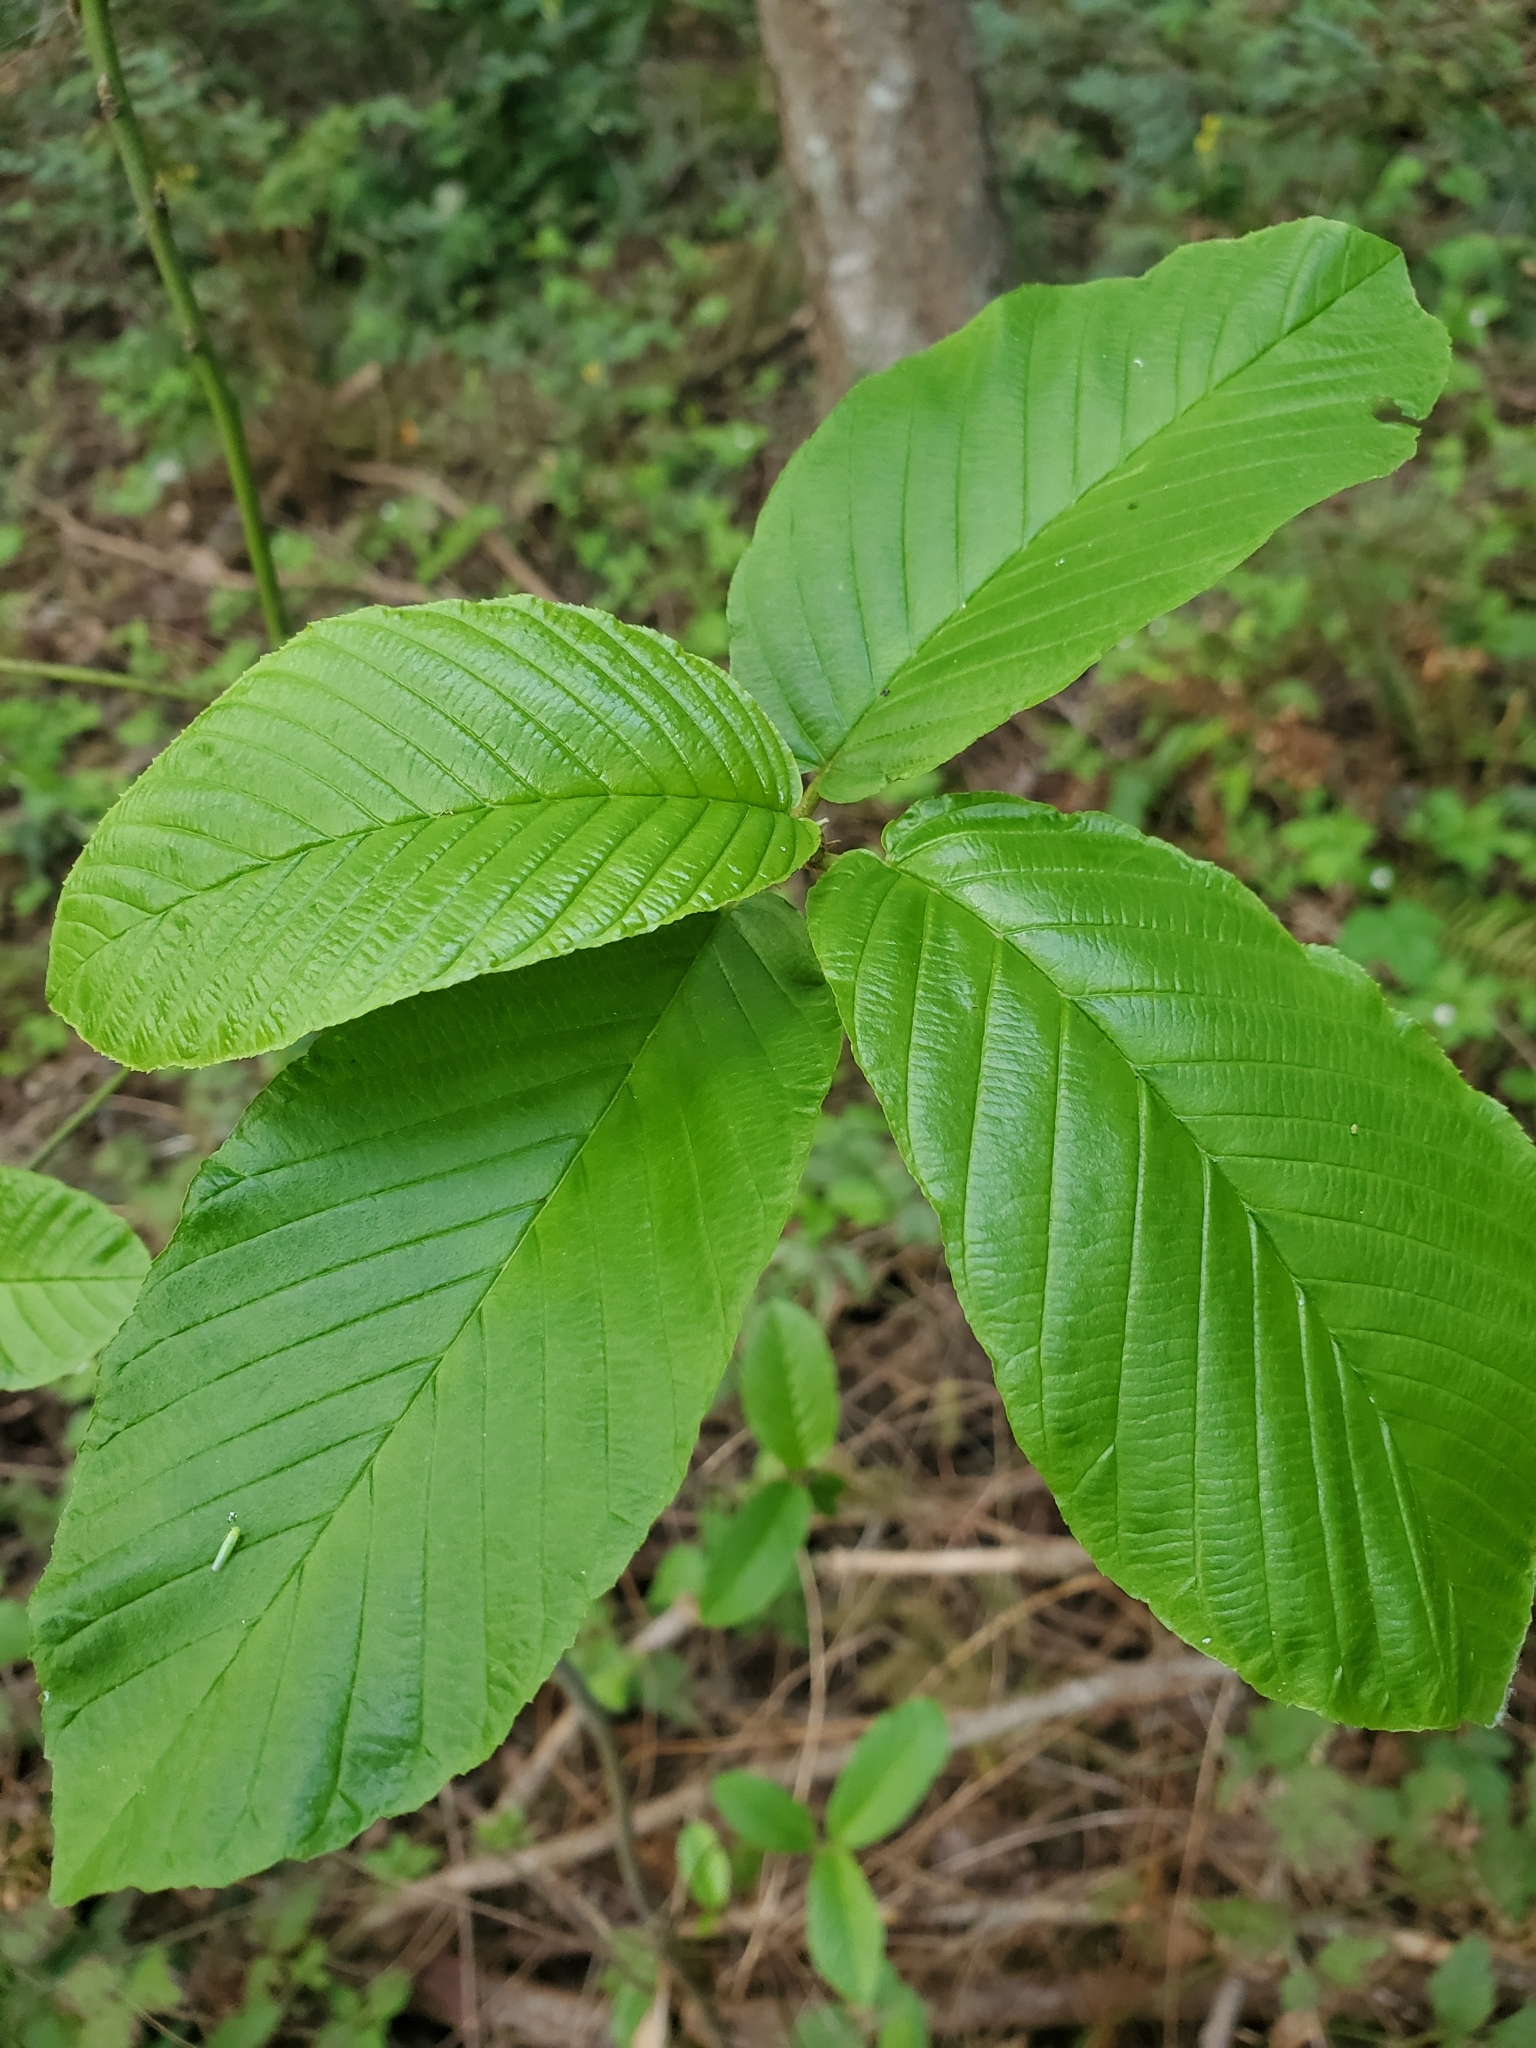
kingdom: Plantae
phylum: Tracheophyta
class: Magnoliopsida
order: Rosales
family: Rhamnaceae
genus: Frangula
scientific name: Frangula purshiana
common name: Cascara buckthorn
